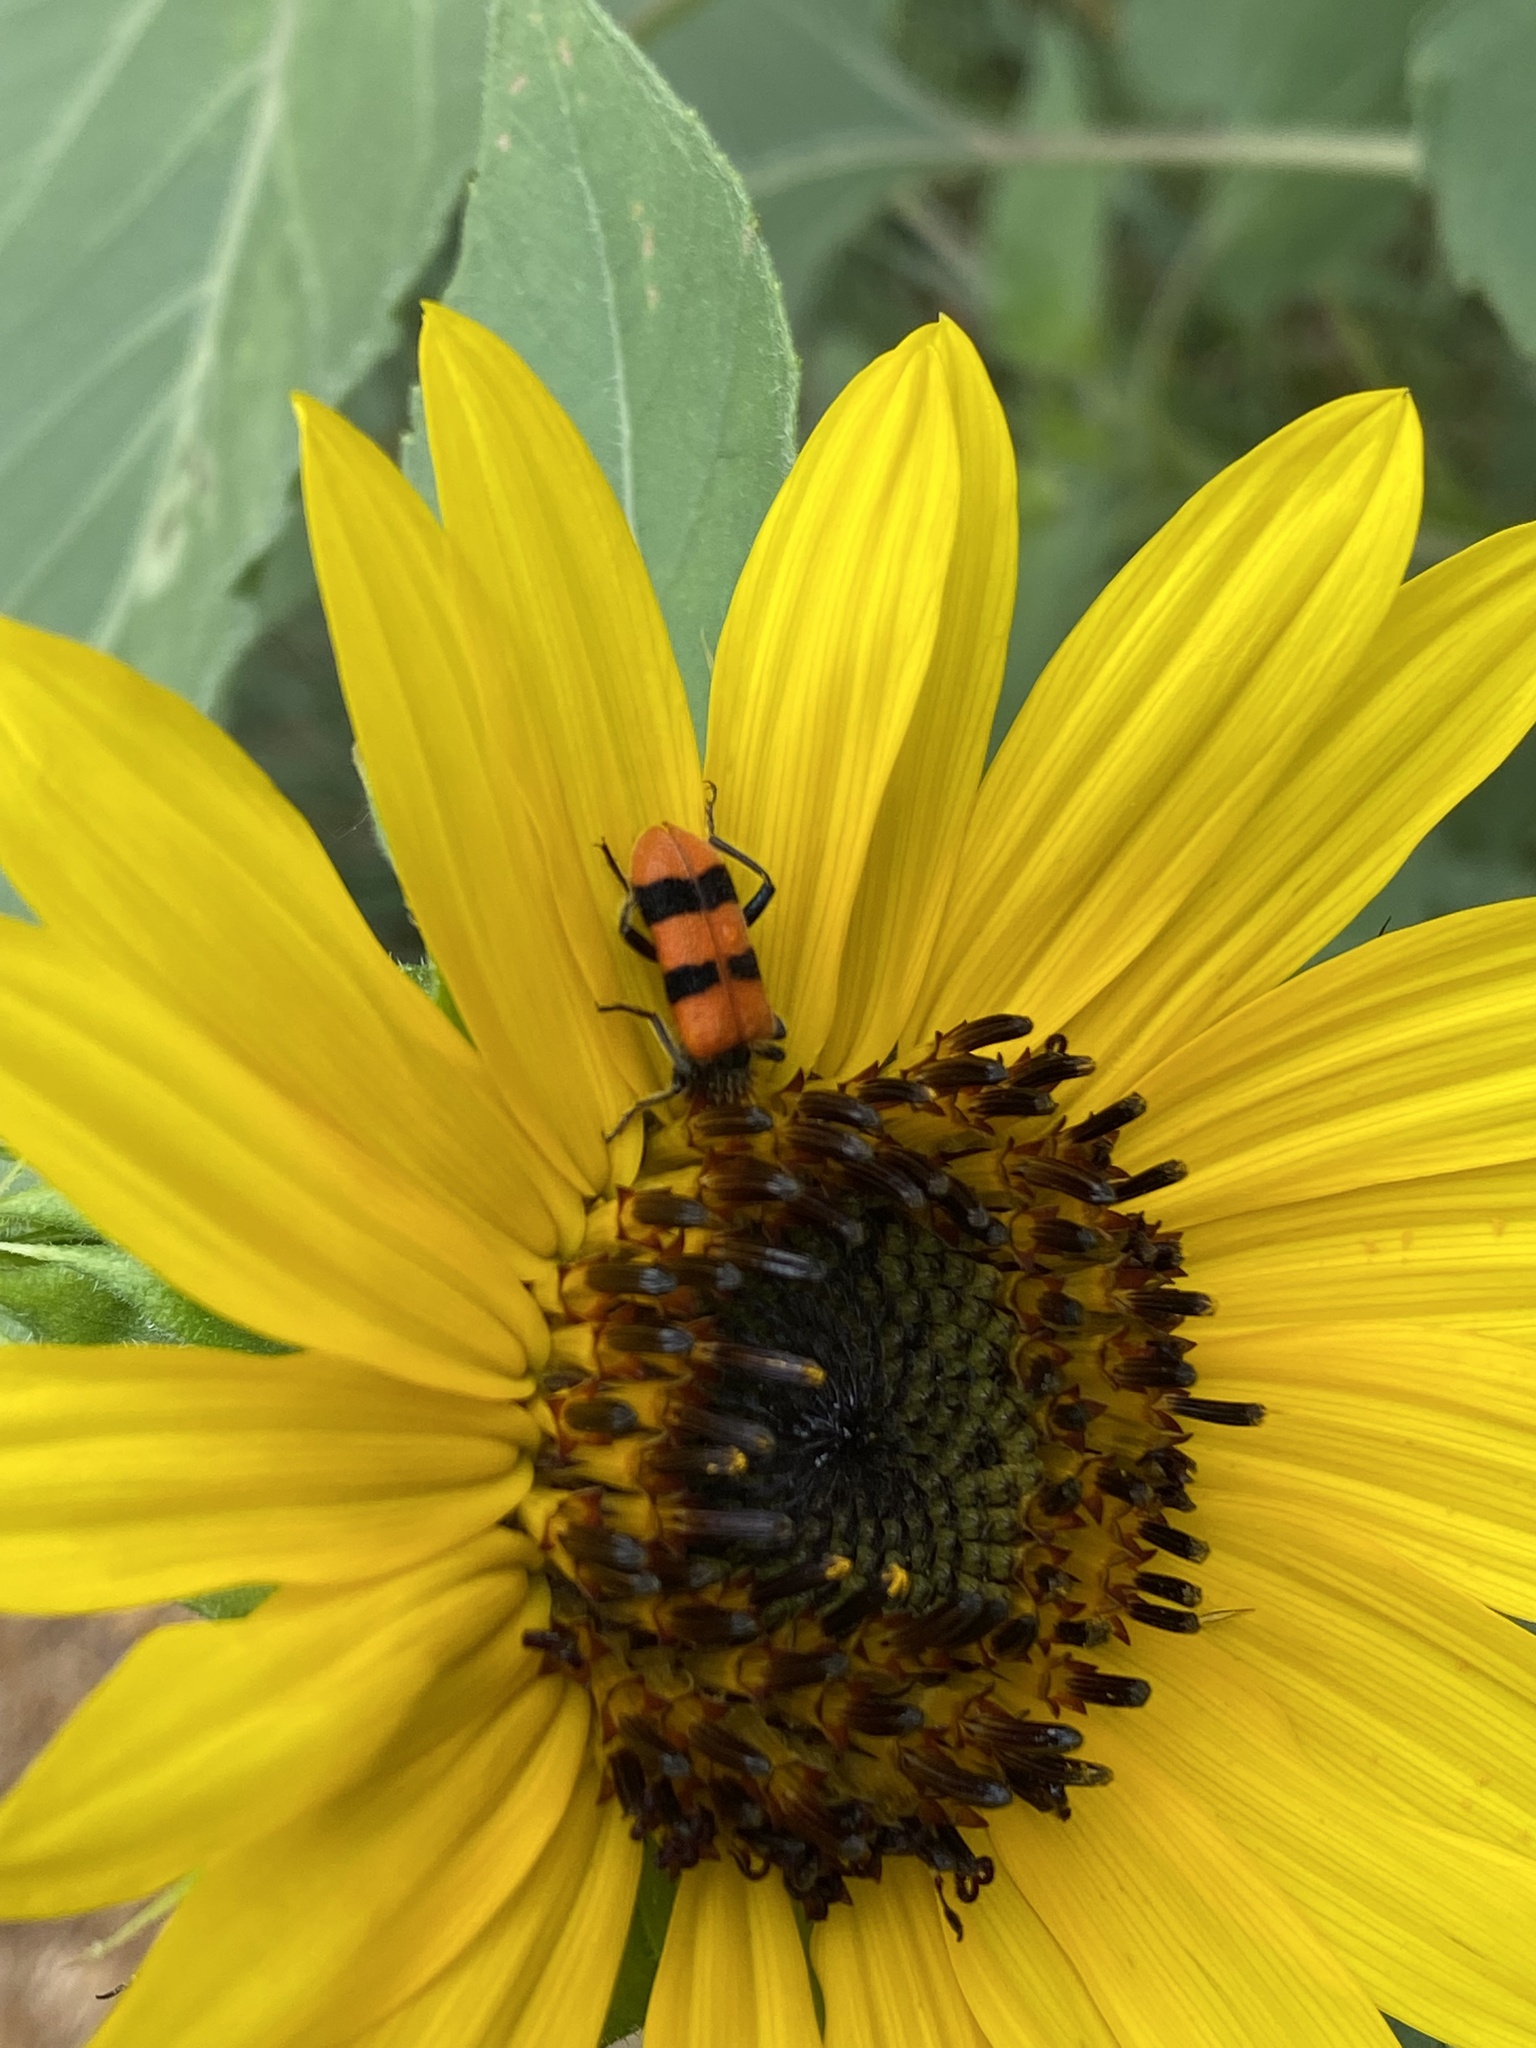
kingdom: Animalia
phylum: Arthropoda
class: Insecta
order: Coleoptera
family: Cleridae
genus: Trichodes
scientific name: Trichodes bibalteatus
